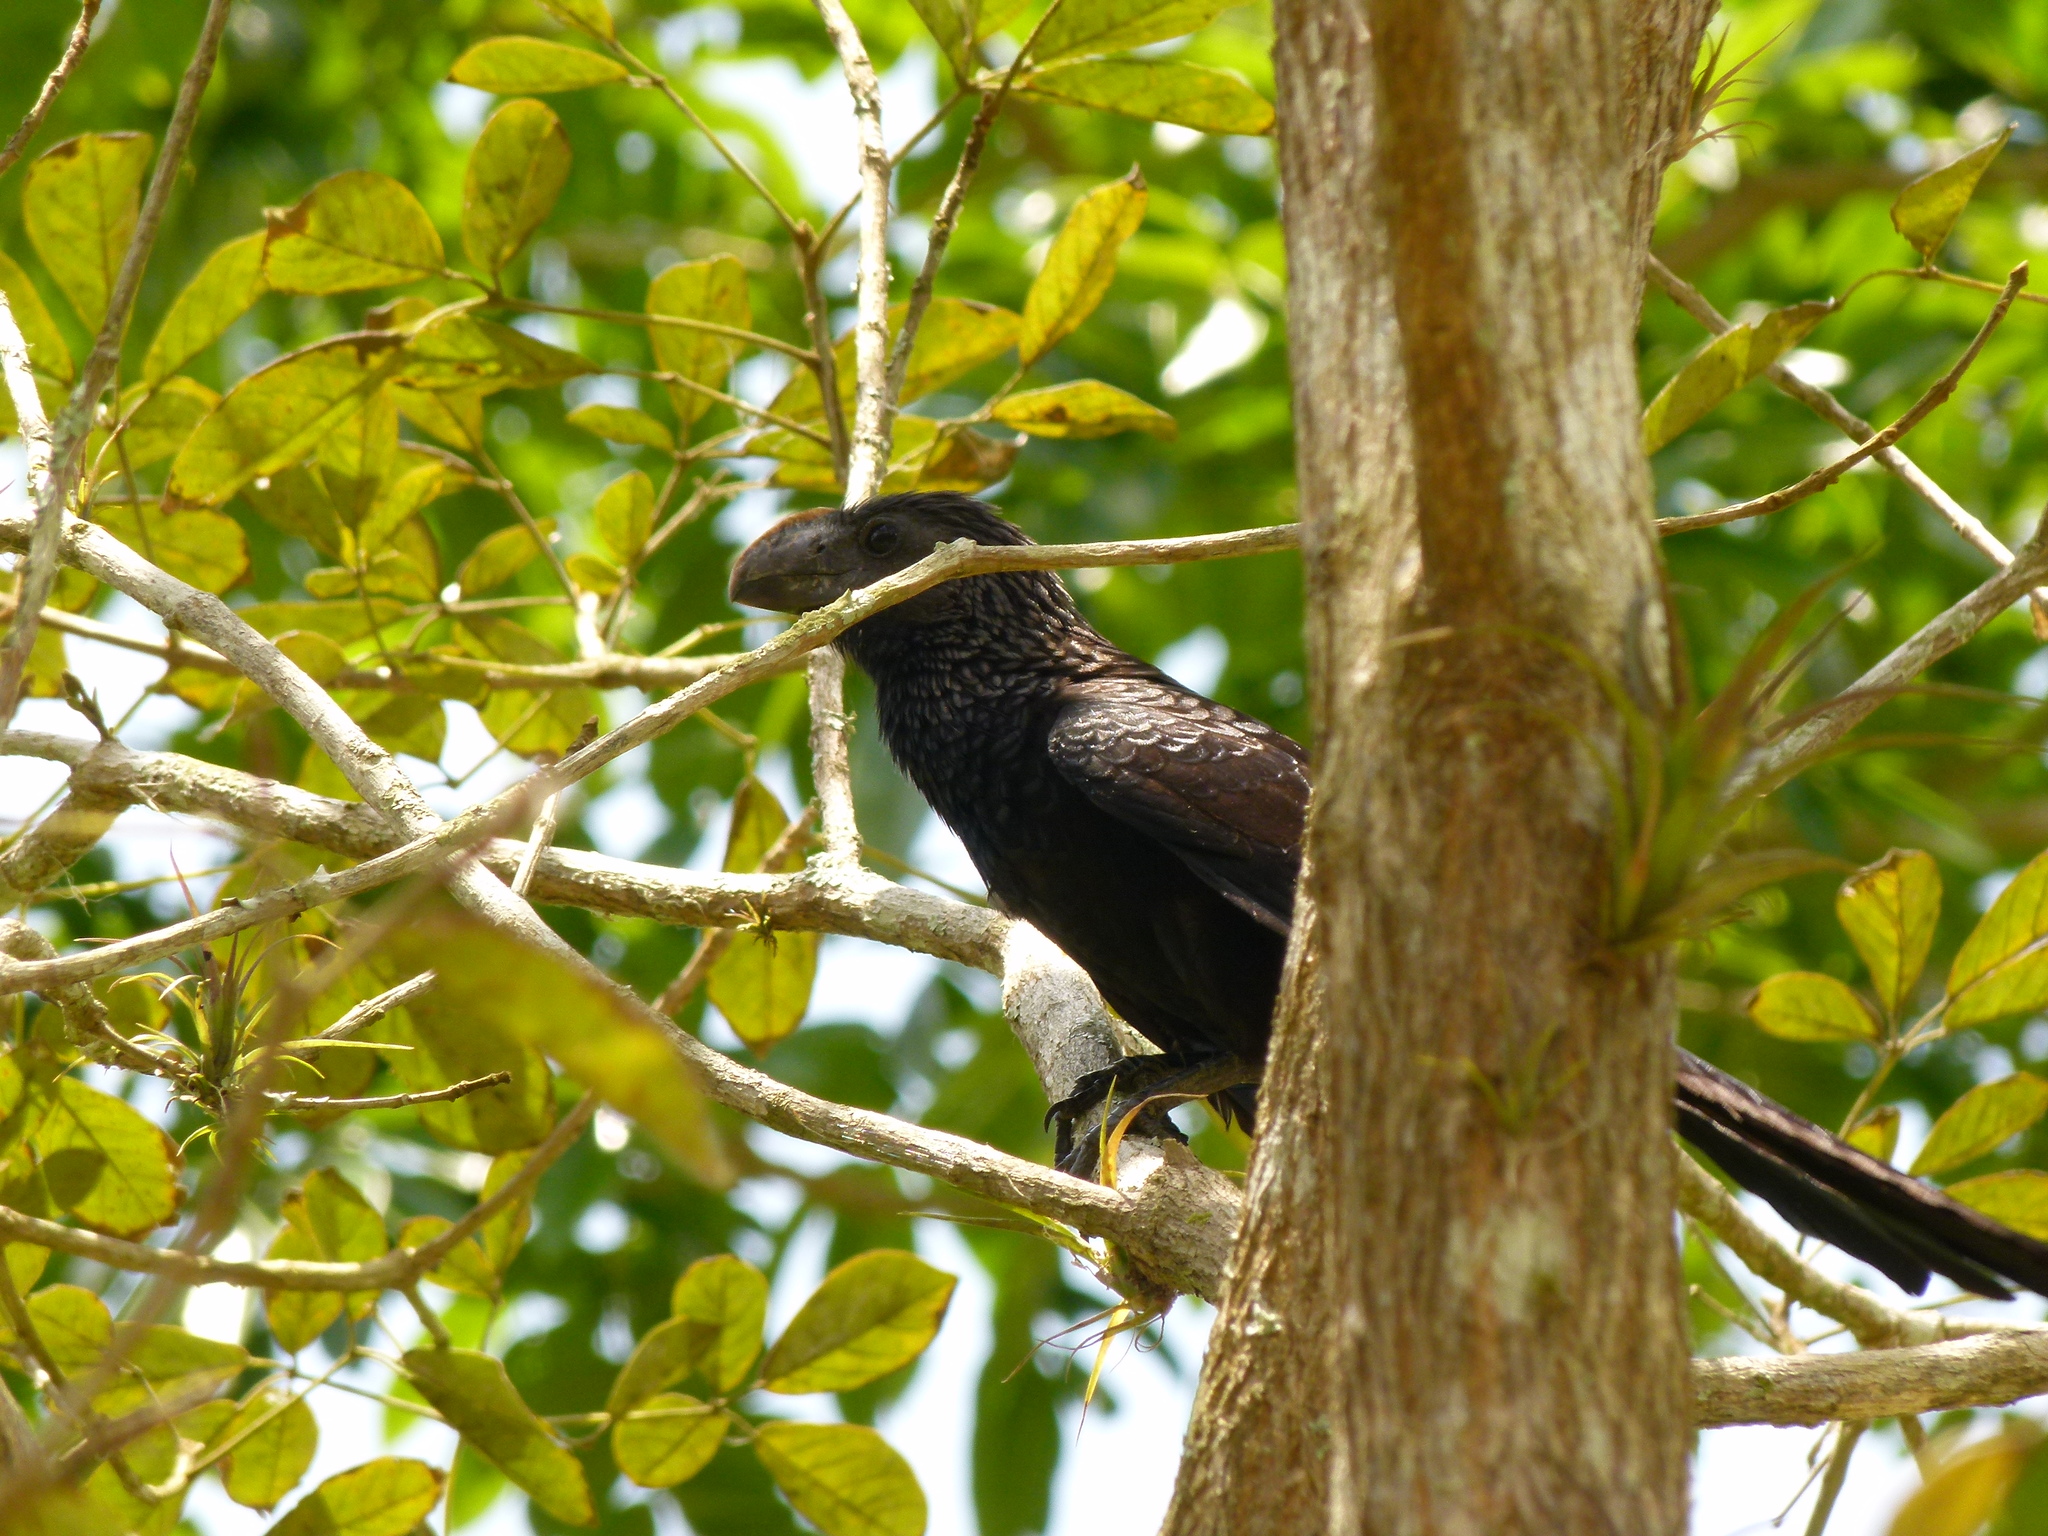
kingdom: Animalia
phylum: Chordata
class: Aves
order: Cuculiformes
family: Cuculidae
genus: Crotophaga
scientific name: Crotophaga ani
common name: Smooth-billed ani
